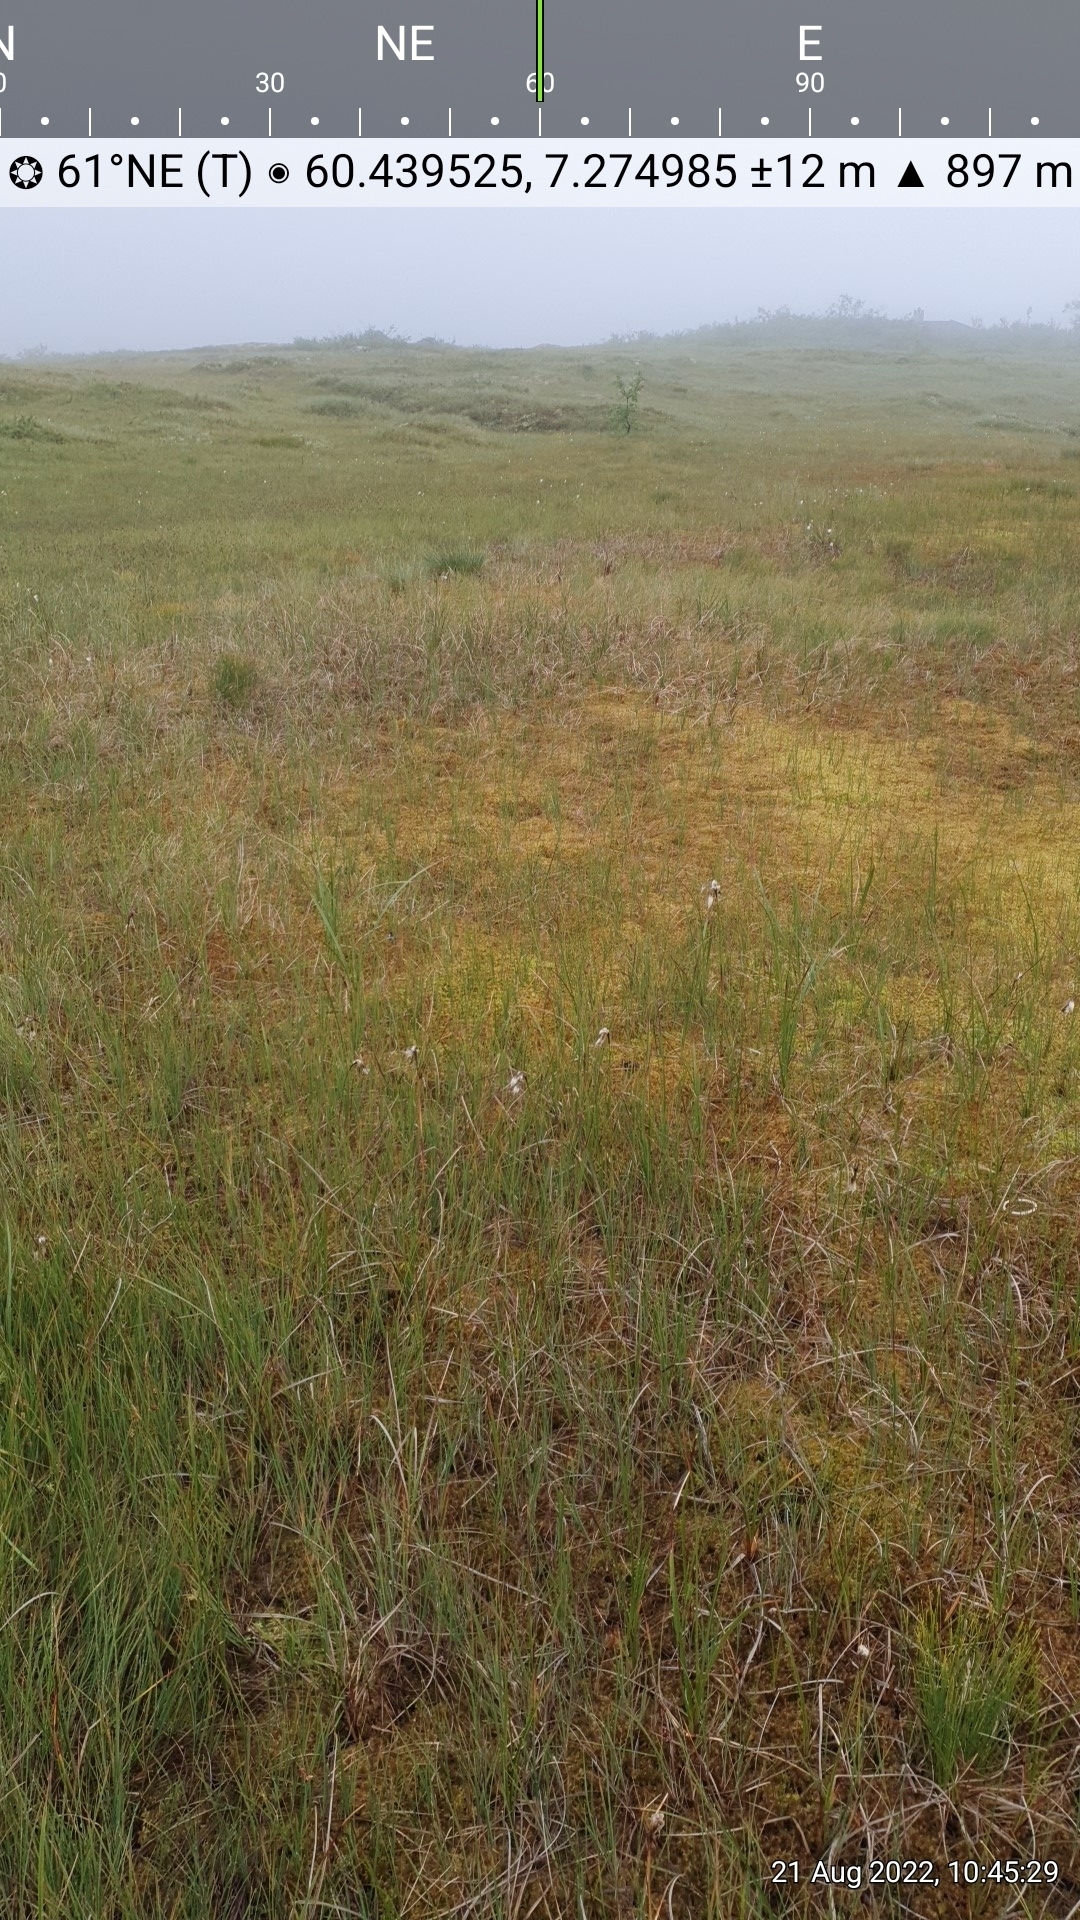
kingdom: Plantae
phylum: Tracheophyta
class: Liliopsida
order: Poales
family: Cyperaceae
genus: Carex
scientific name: Carex magellanica
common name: Bog sedge
